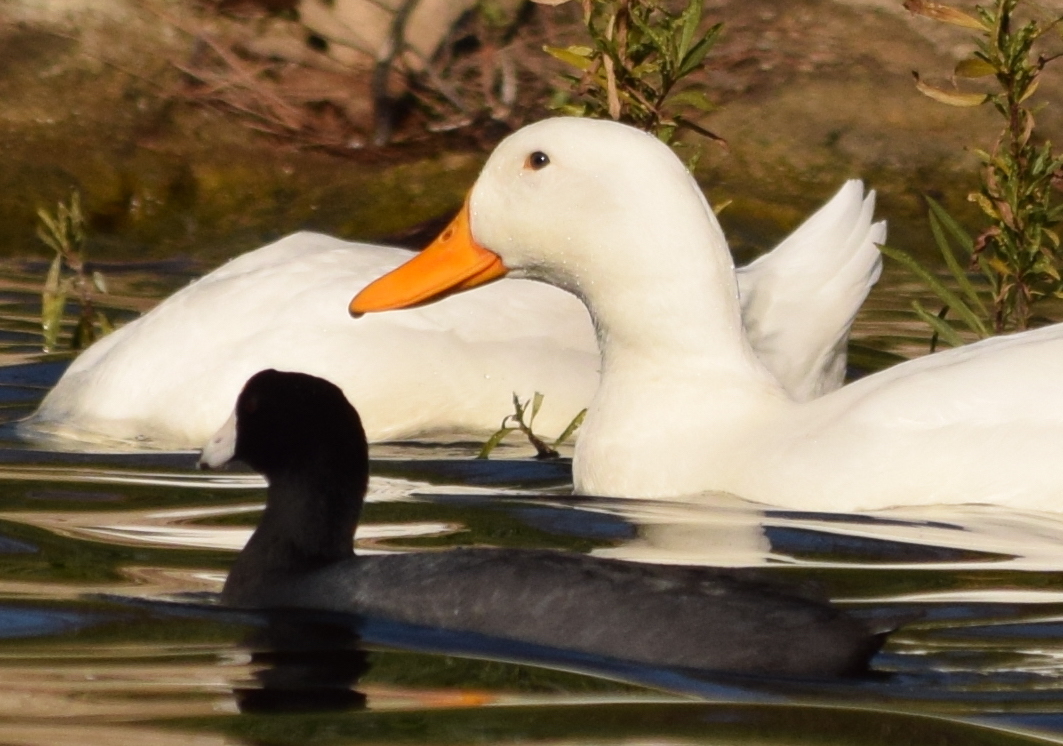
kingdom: Animalia
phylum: Chordata
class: Aves
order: Gruiformes
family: Rallidae
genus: Fulica
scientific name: Fulica americana
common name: American coot
